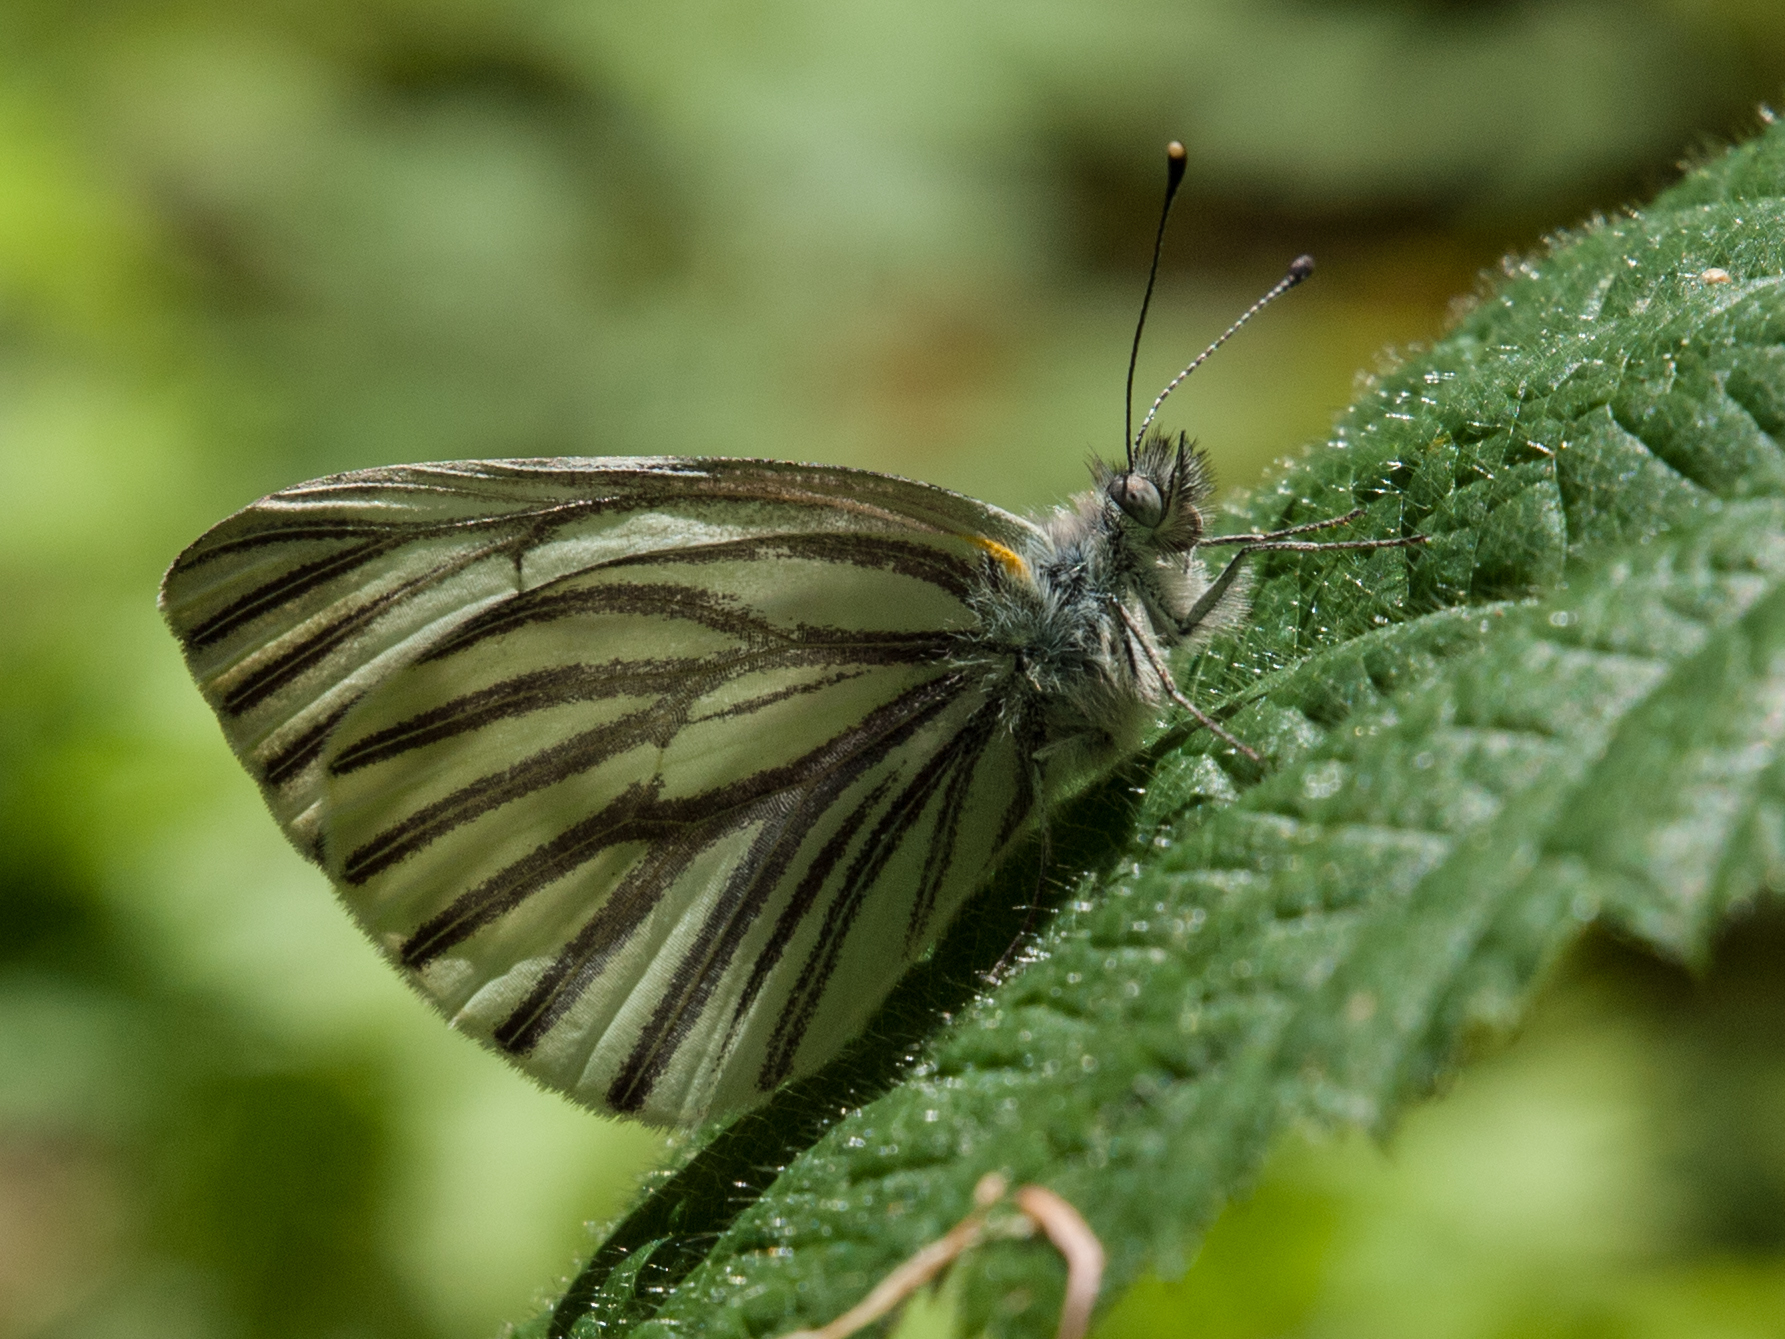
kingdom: Animalia
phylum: Arthropoda
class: Insecta
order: Lepidoptera
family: Pieridae
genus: Pieris
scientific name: Pieris marginalis
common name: Margined white
